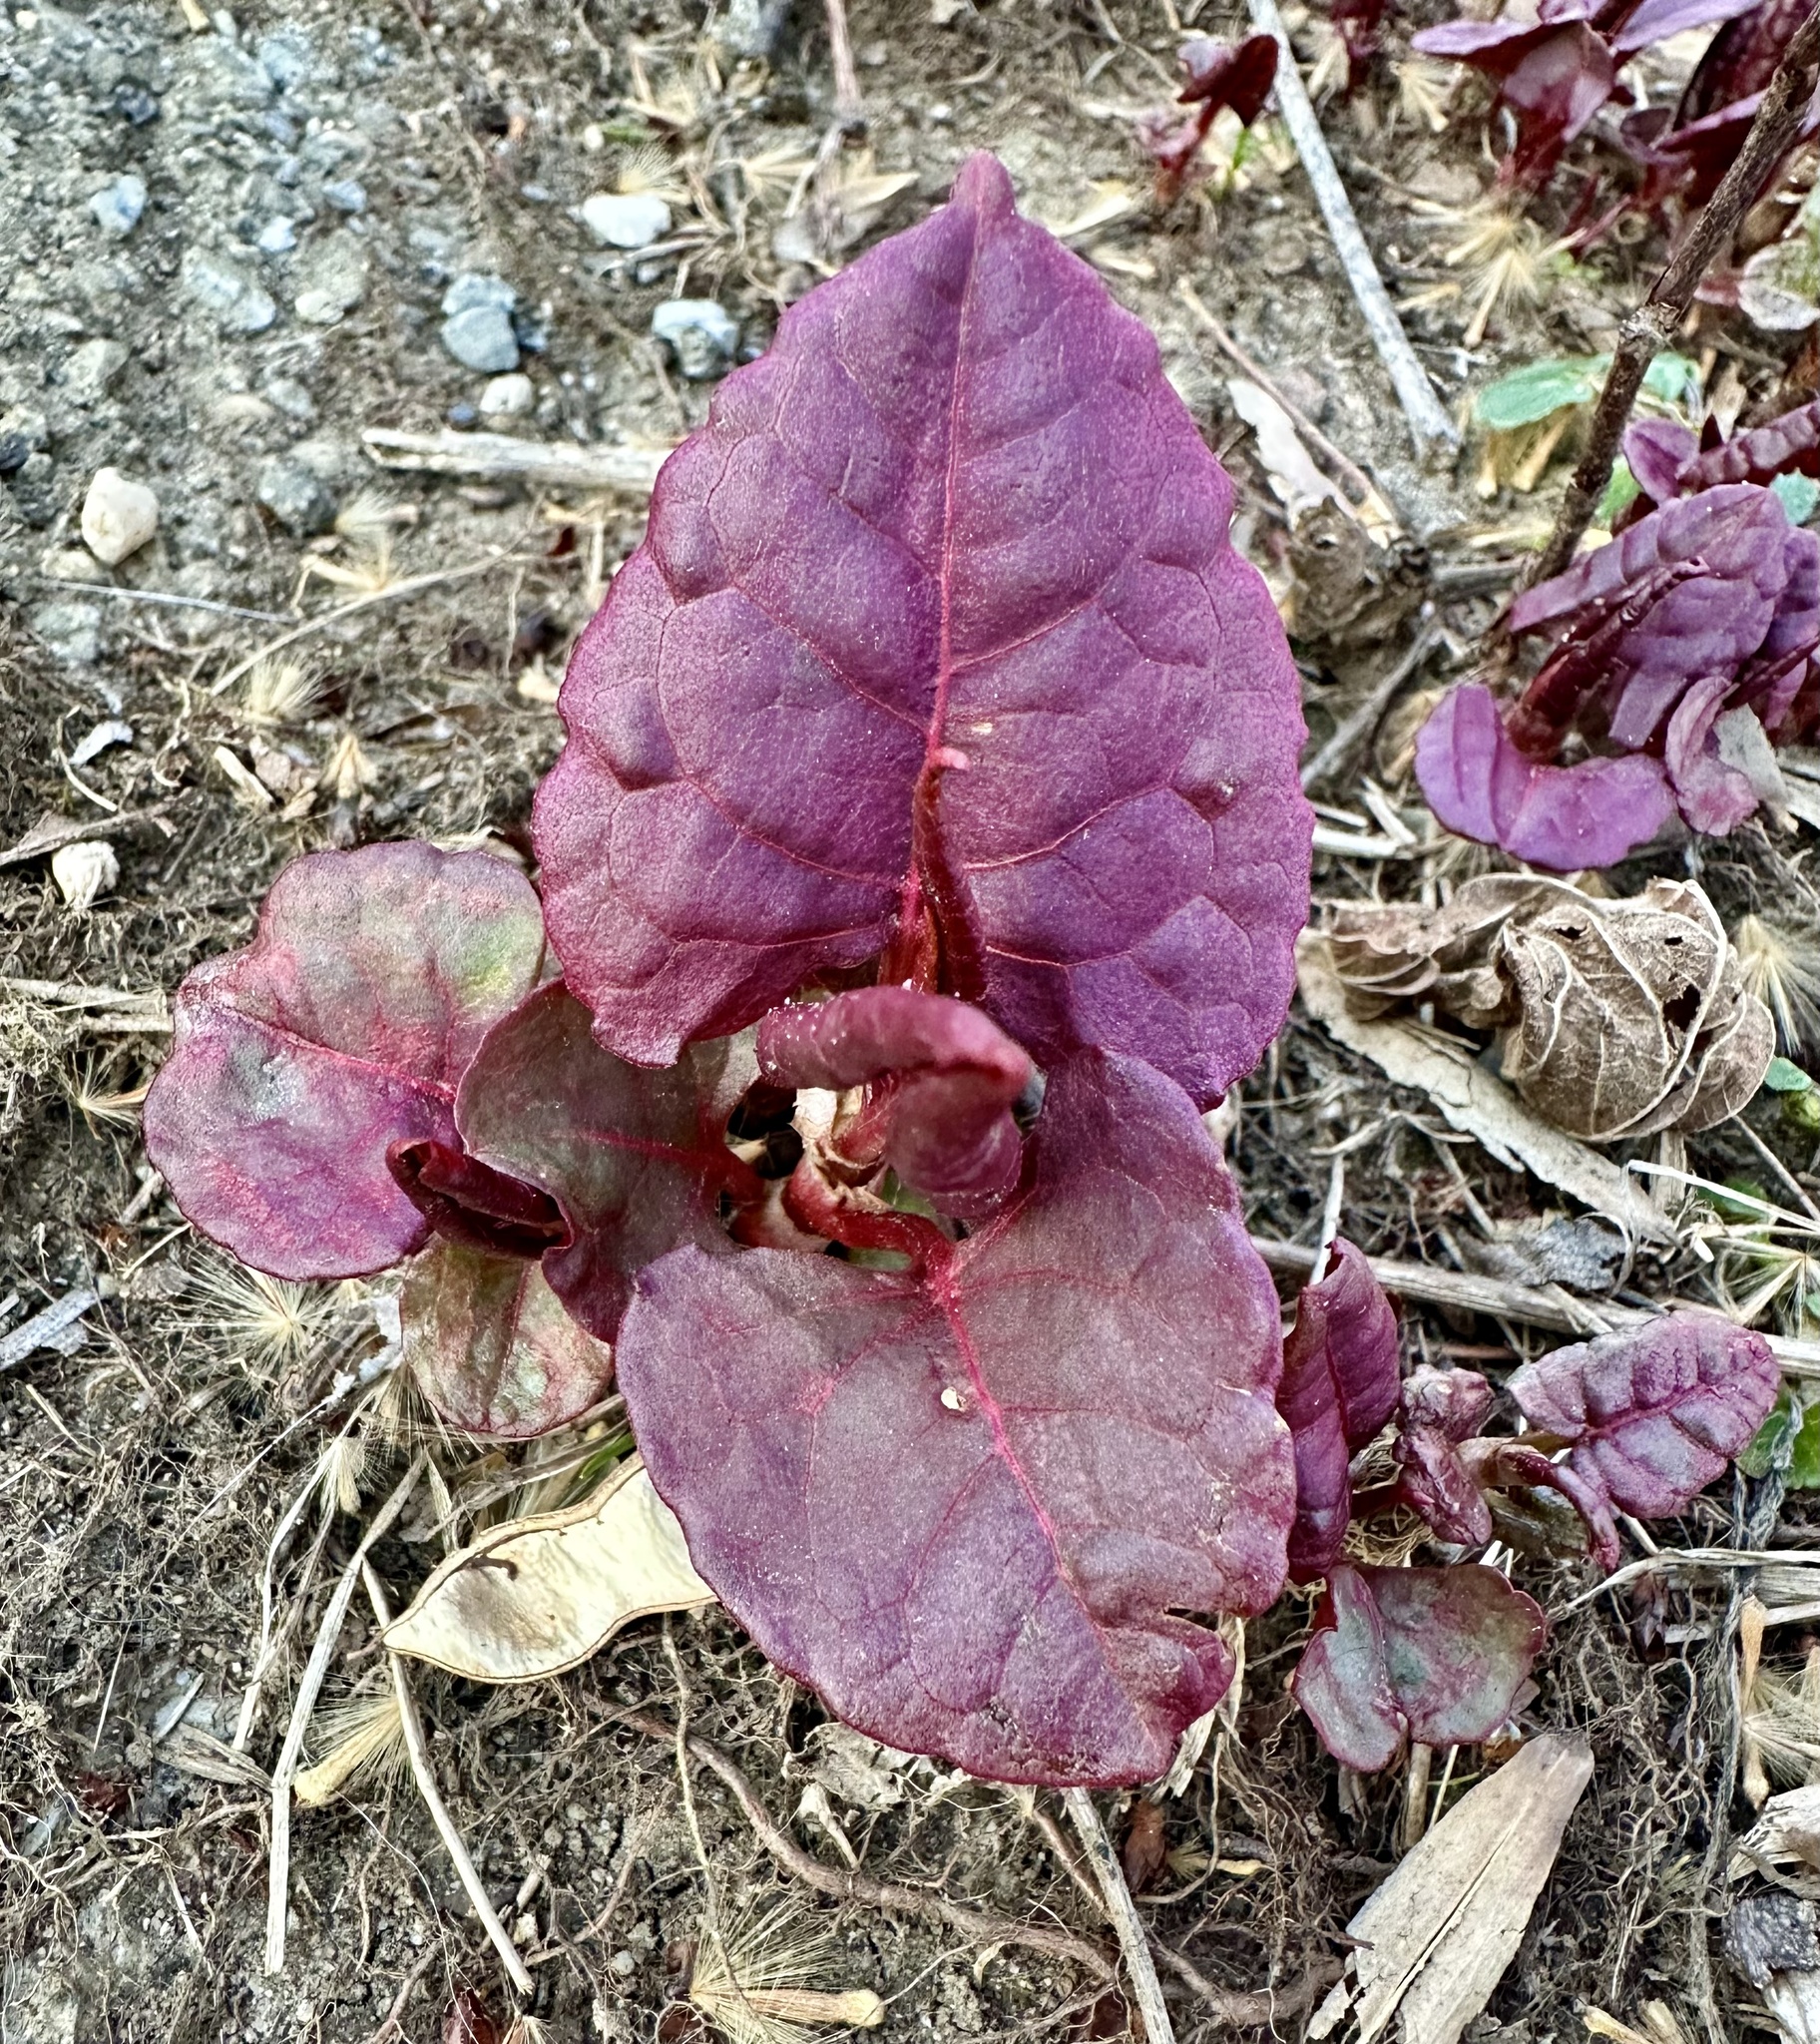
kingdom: Plantae
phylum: Tracheophyta
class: Magnoliopsida
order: Caryophyllales
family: Polygonaceae
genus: Reynoutria
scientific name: Reynoutria japonica
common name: Japanese knotweed
